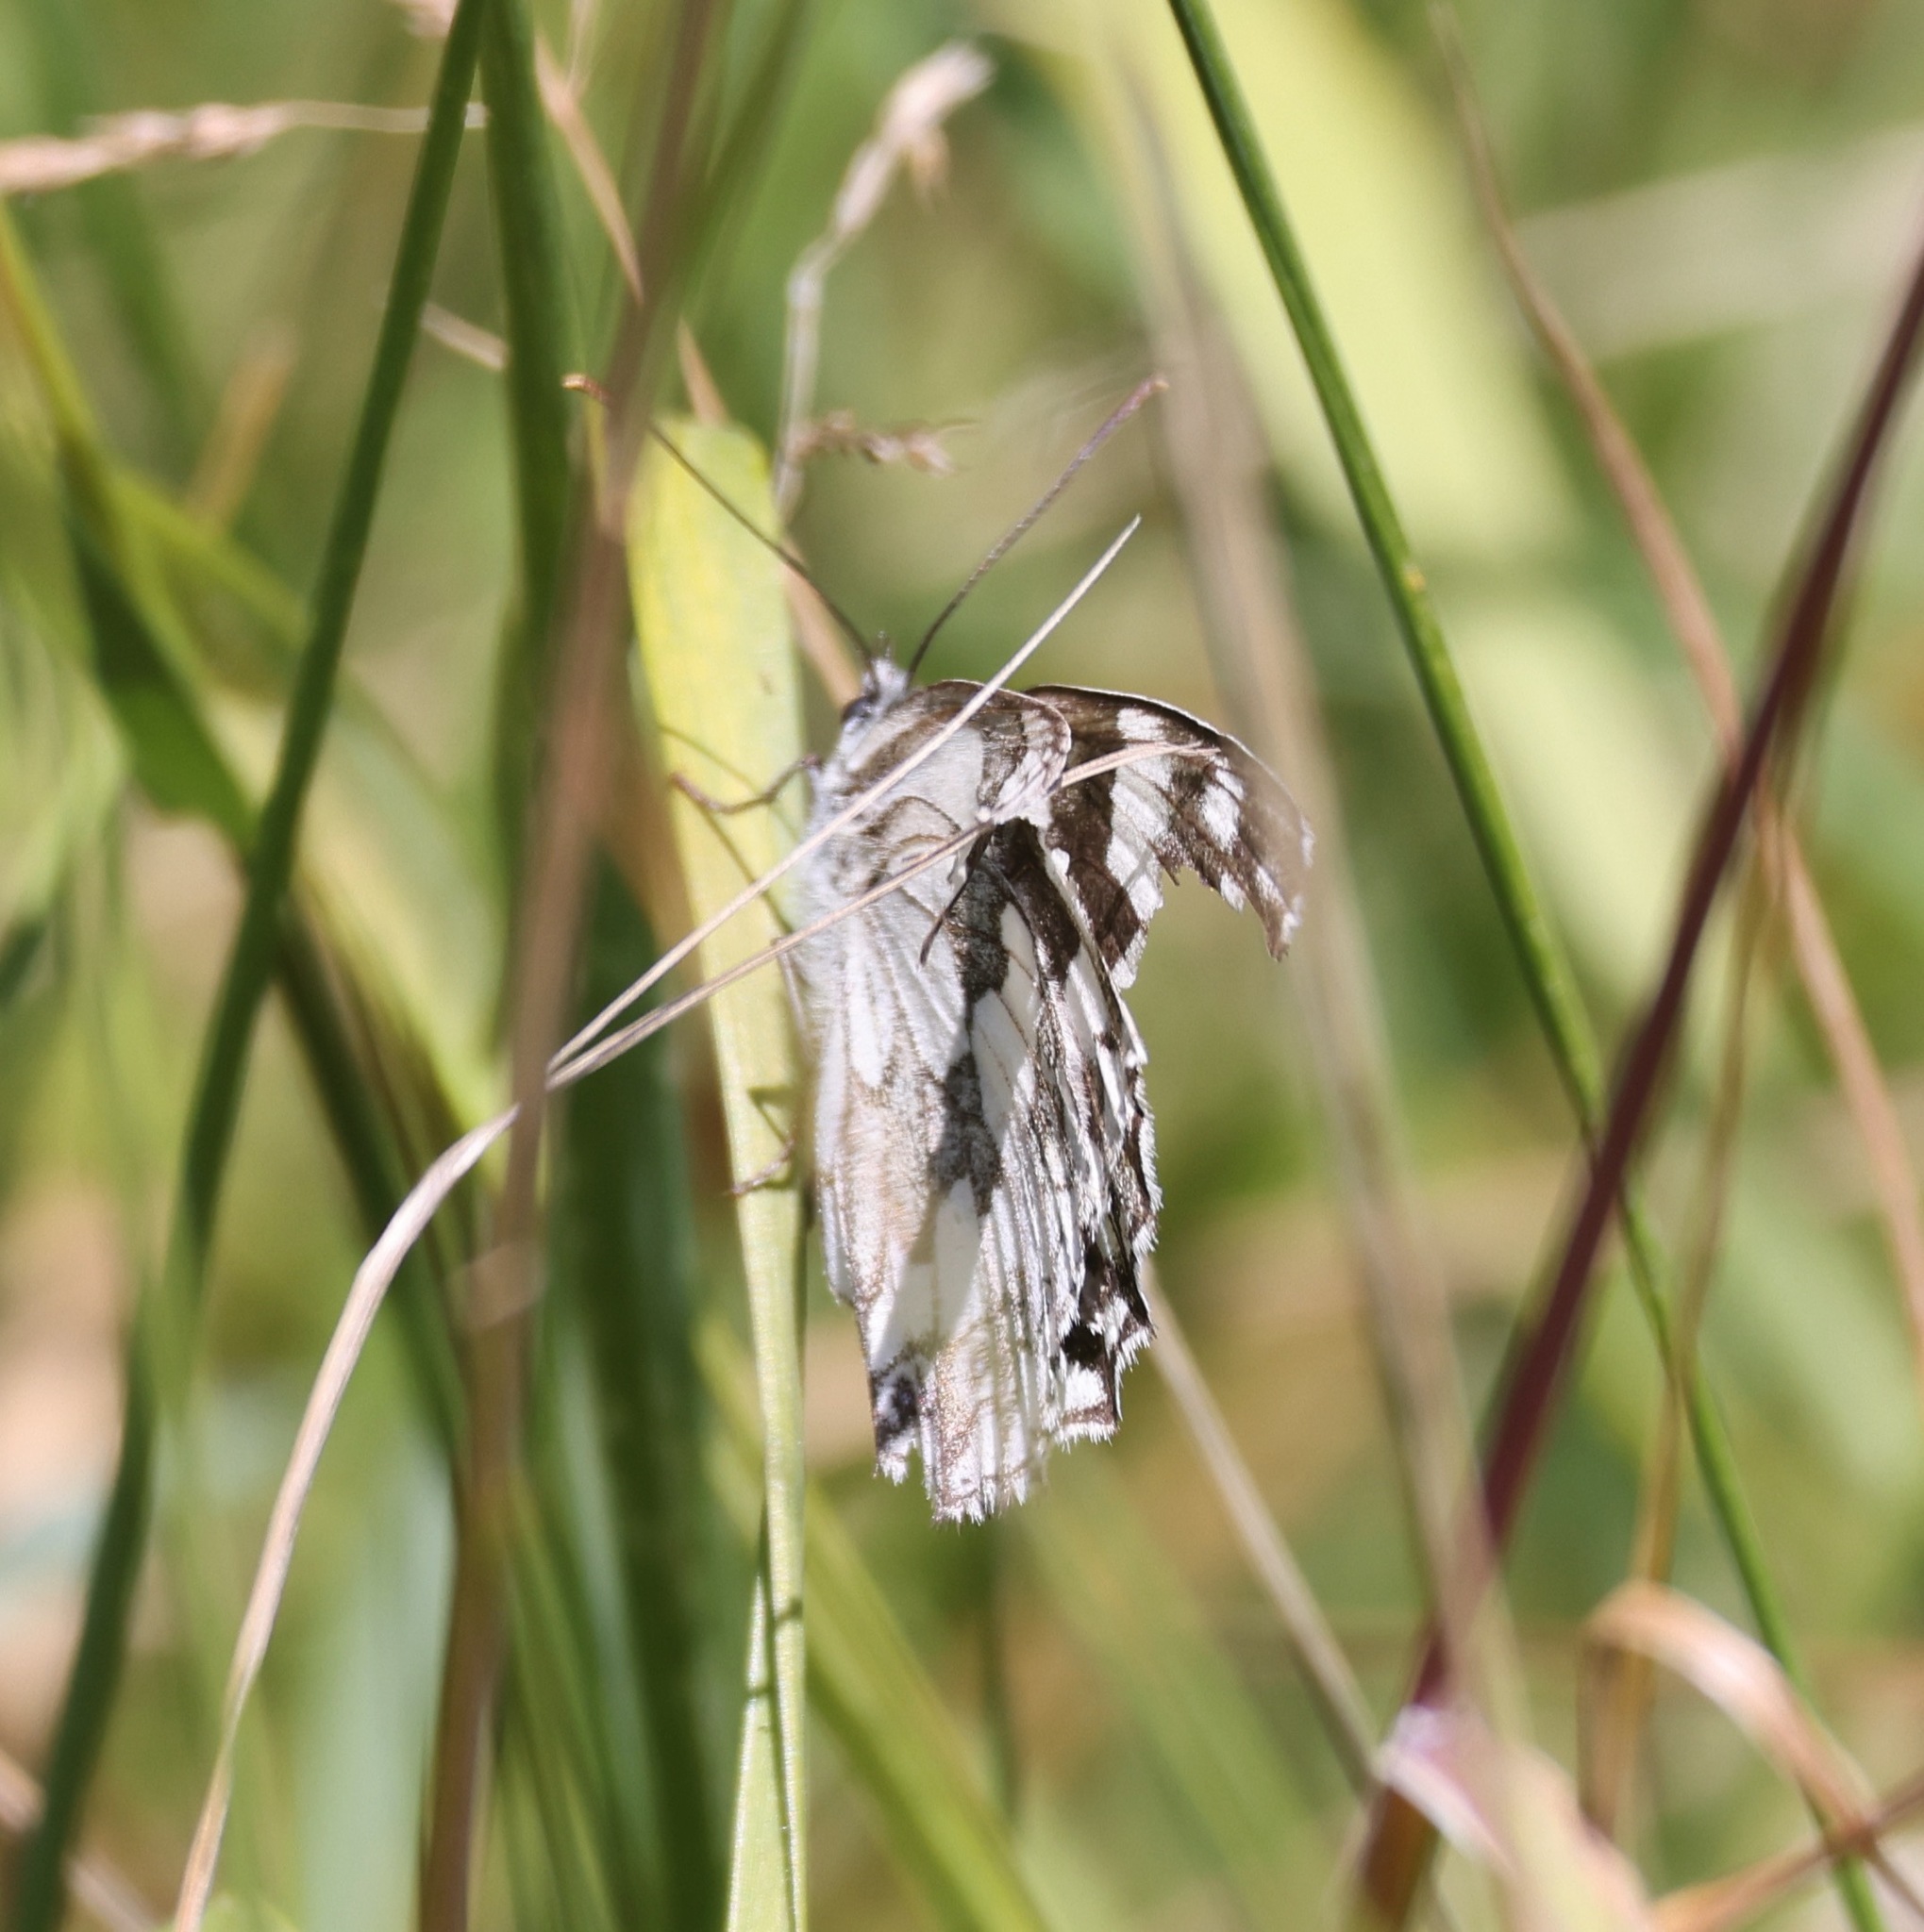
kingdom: Animalia
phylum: Arthropoda
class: Insecta
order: Lepidoptera
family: Nymphalidae
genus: Melanargia
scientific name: Melanargia galathea
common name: Marbled white
